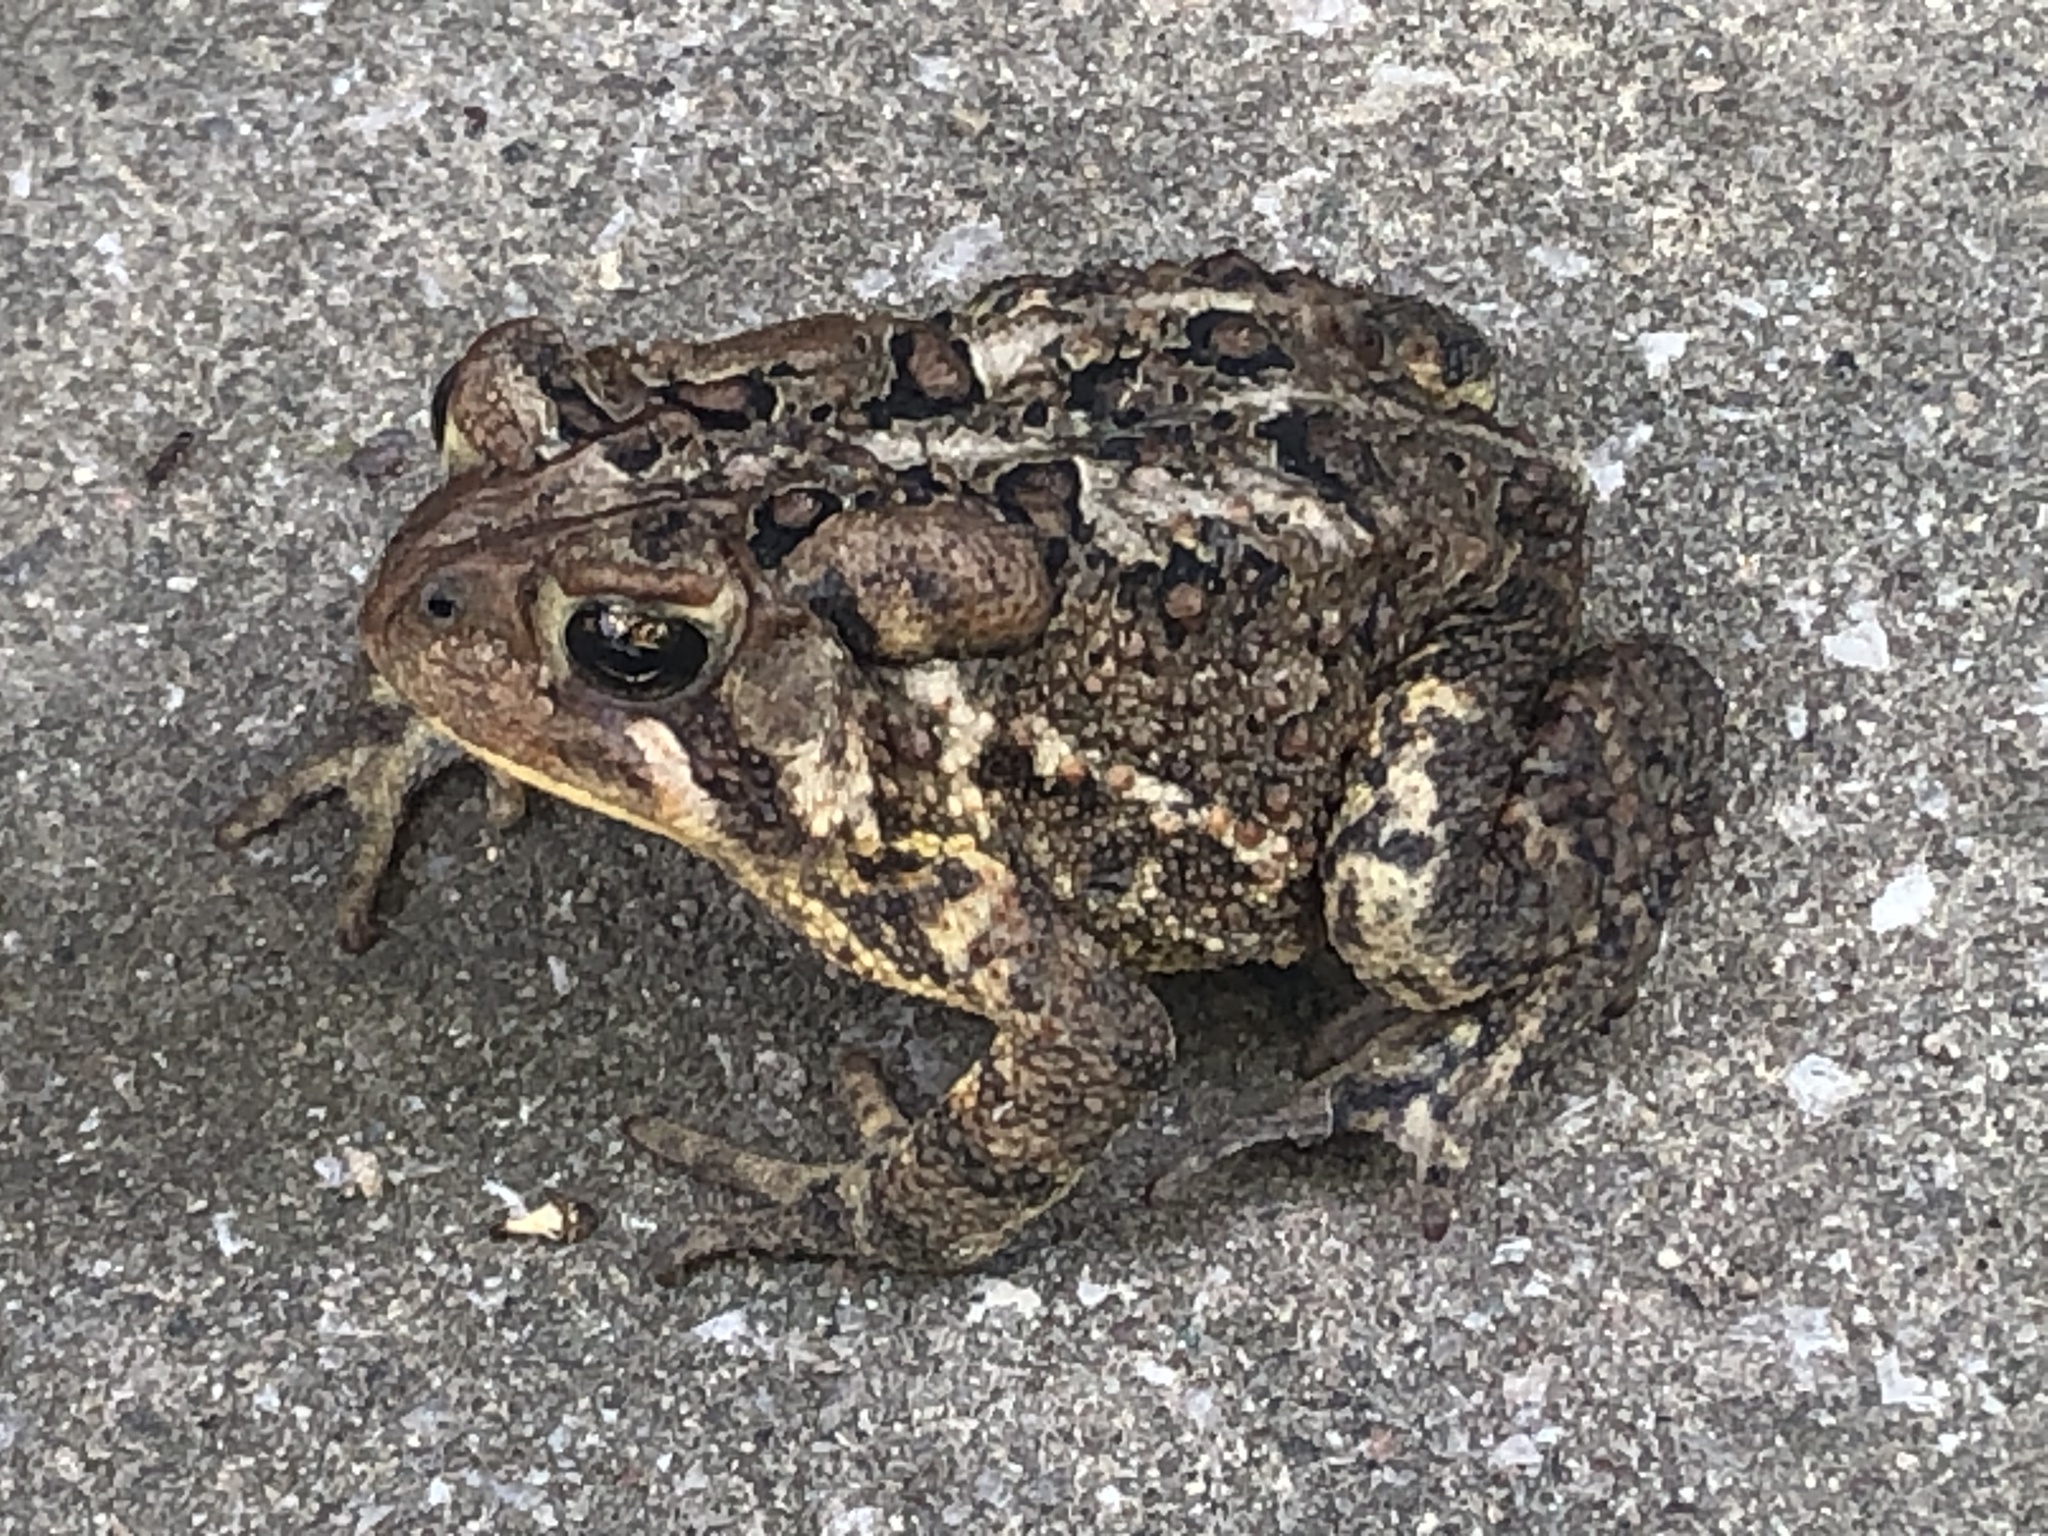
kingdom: Animalia
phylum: Chordata
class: Amphibia
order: Anura
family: Bufonidae
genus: Anaxyrus
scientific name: Anaxyrus americanus
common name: American toad
